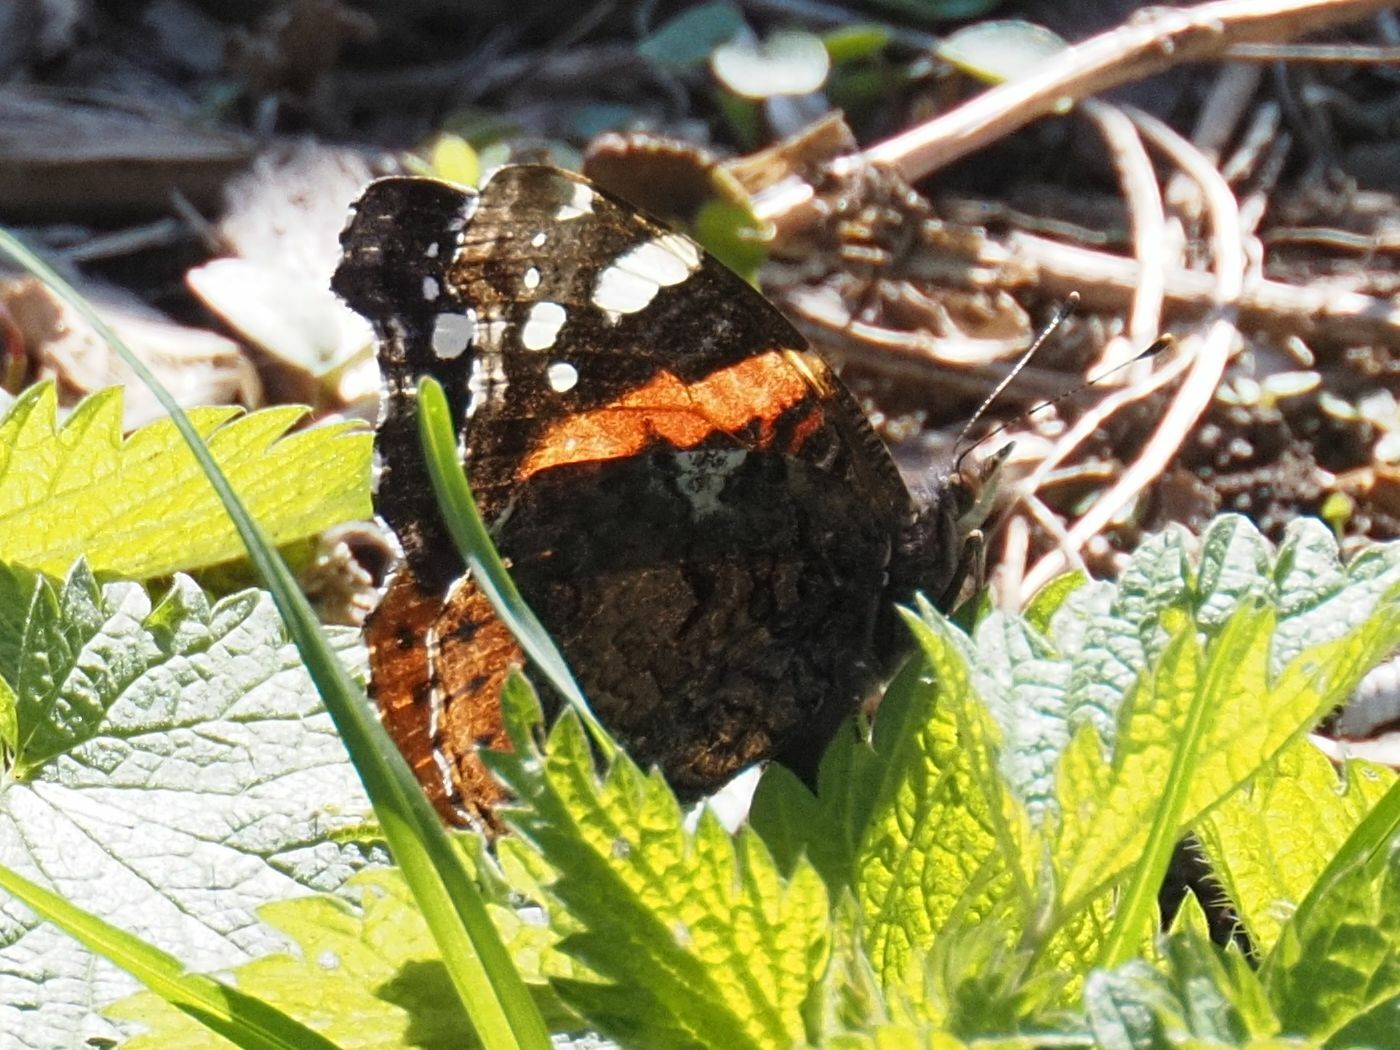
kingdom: Animalia
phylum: Arthropoda
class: Insecta
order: Lepidoptera
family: Nymphalidae
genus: Vanessa
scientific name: Vanessa atalanta
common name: Red admiral
